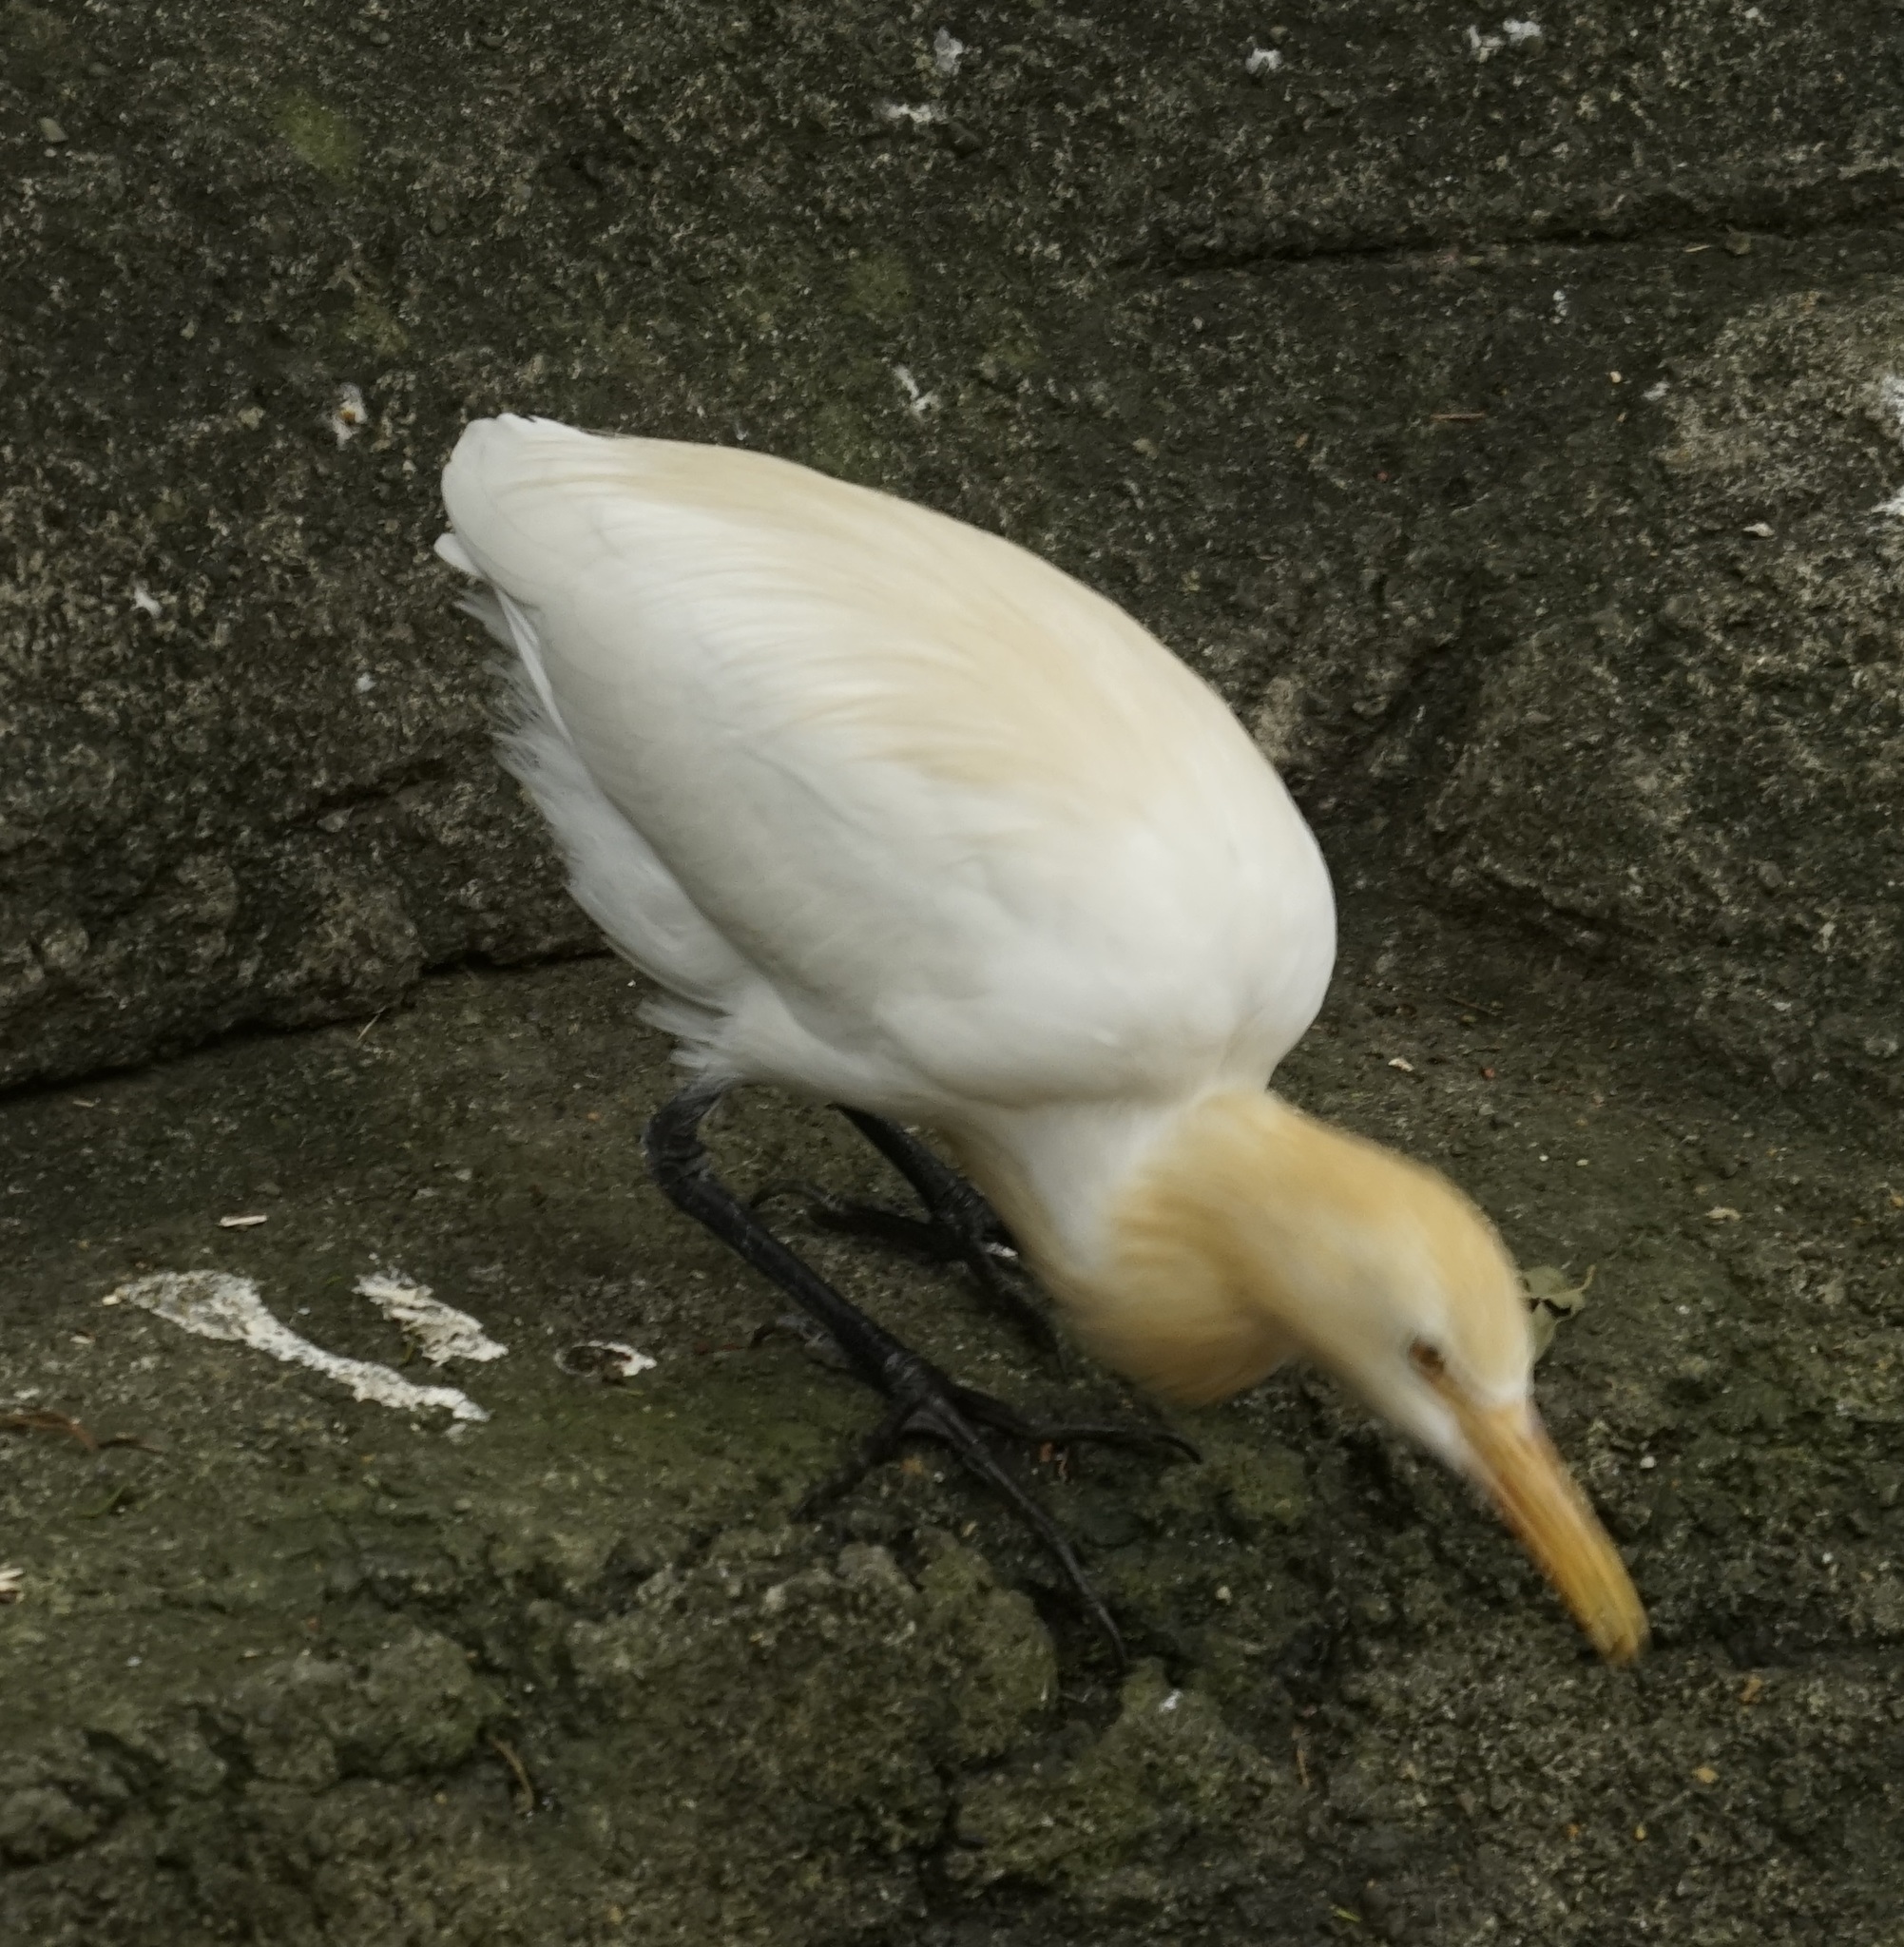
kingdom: Animalia
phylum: Chordata
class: Aves
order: Pelecaniformes
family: Ardeidae
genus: Bubulcus
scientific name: Bubulcus coromandus
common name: Eastern cattle egret
